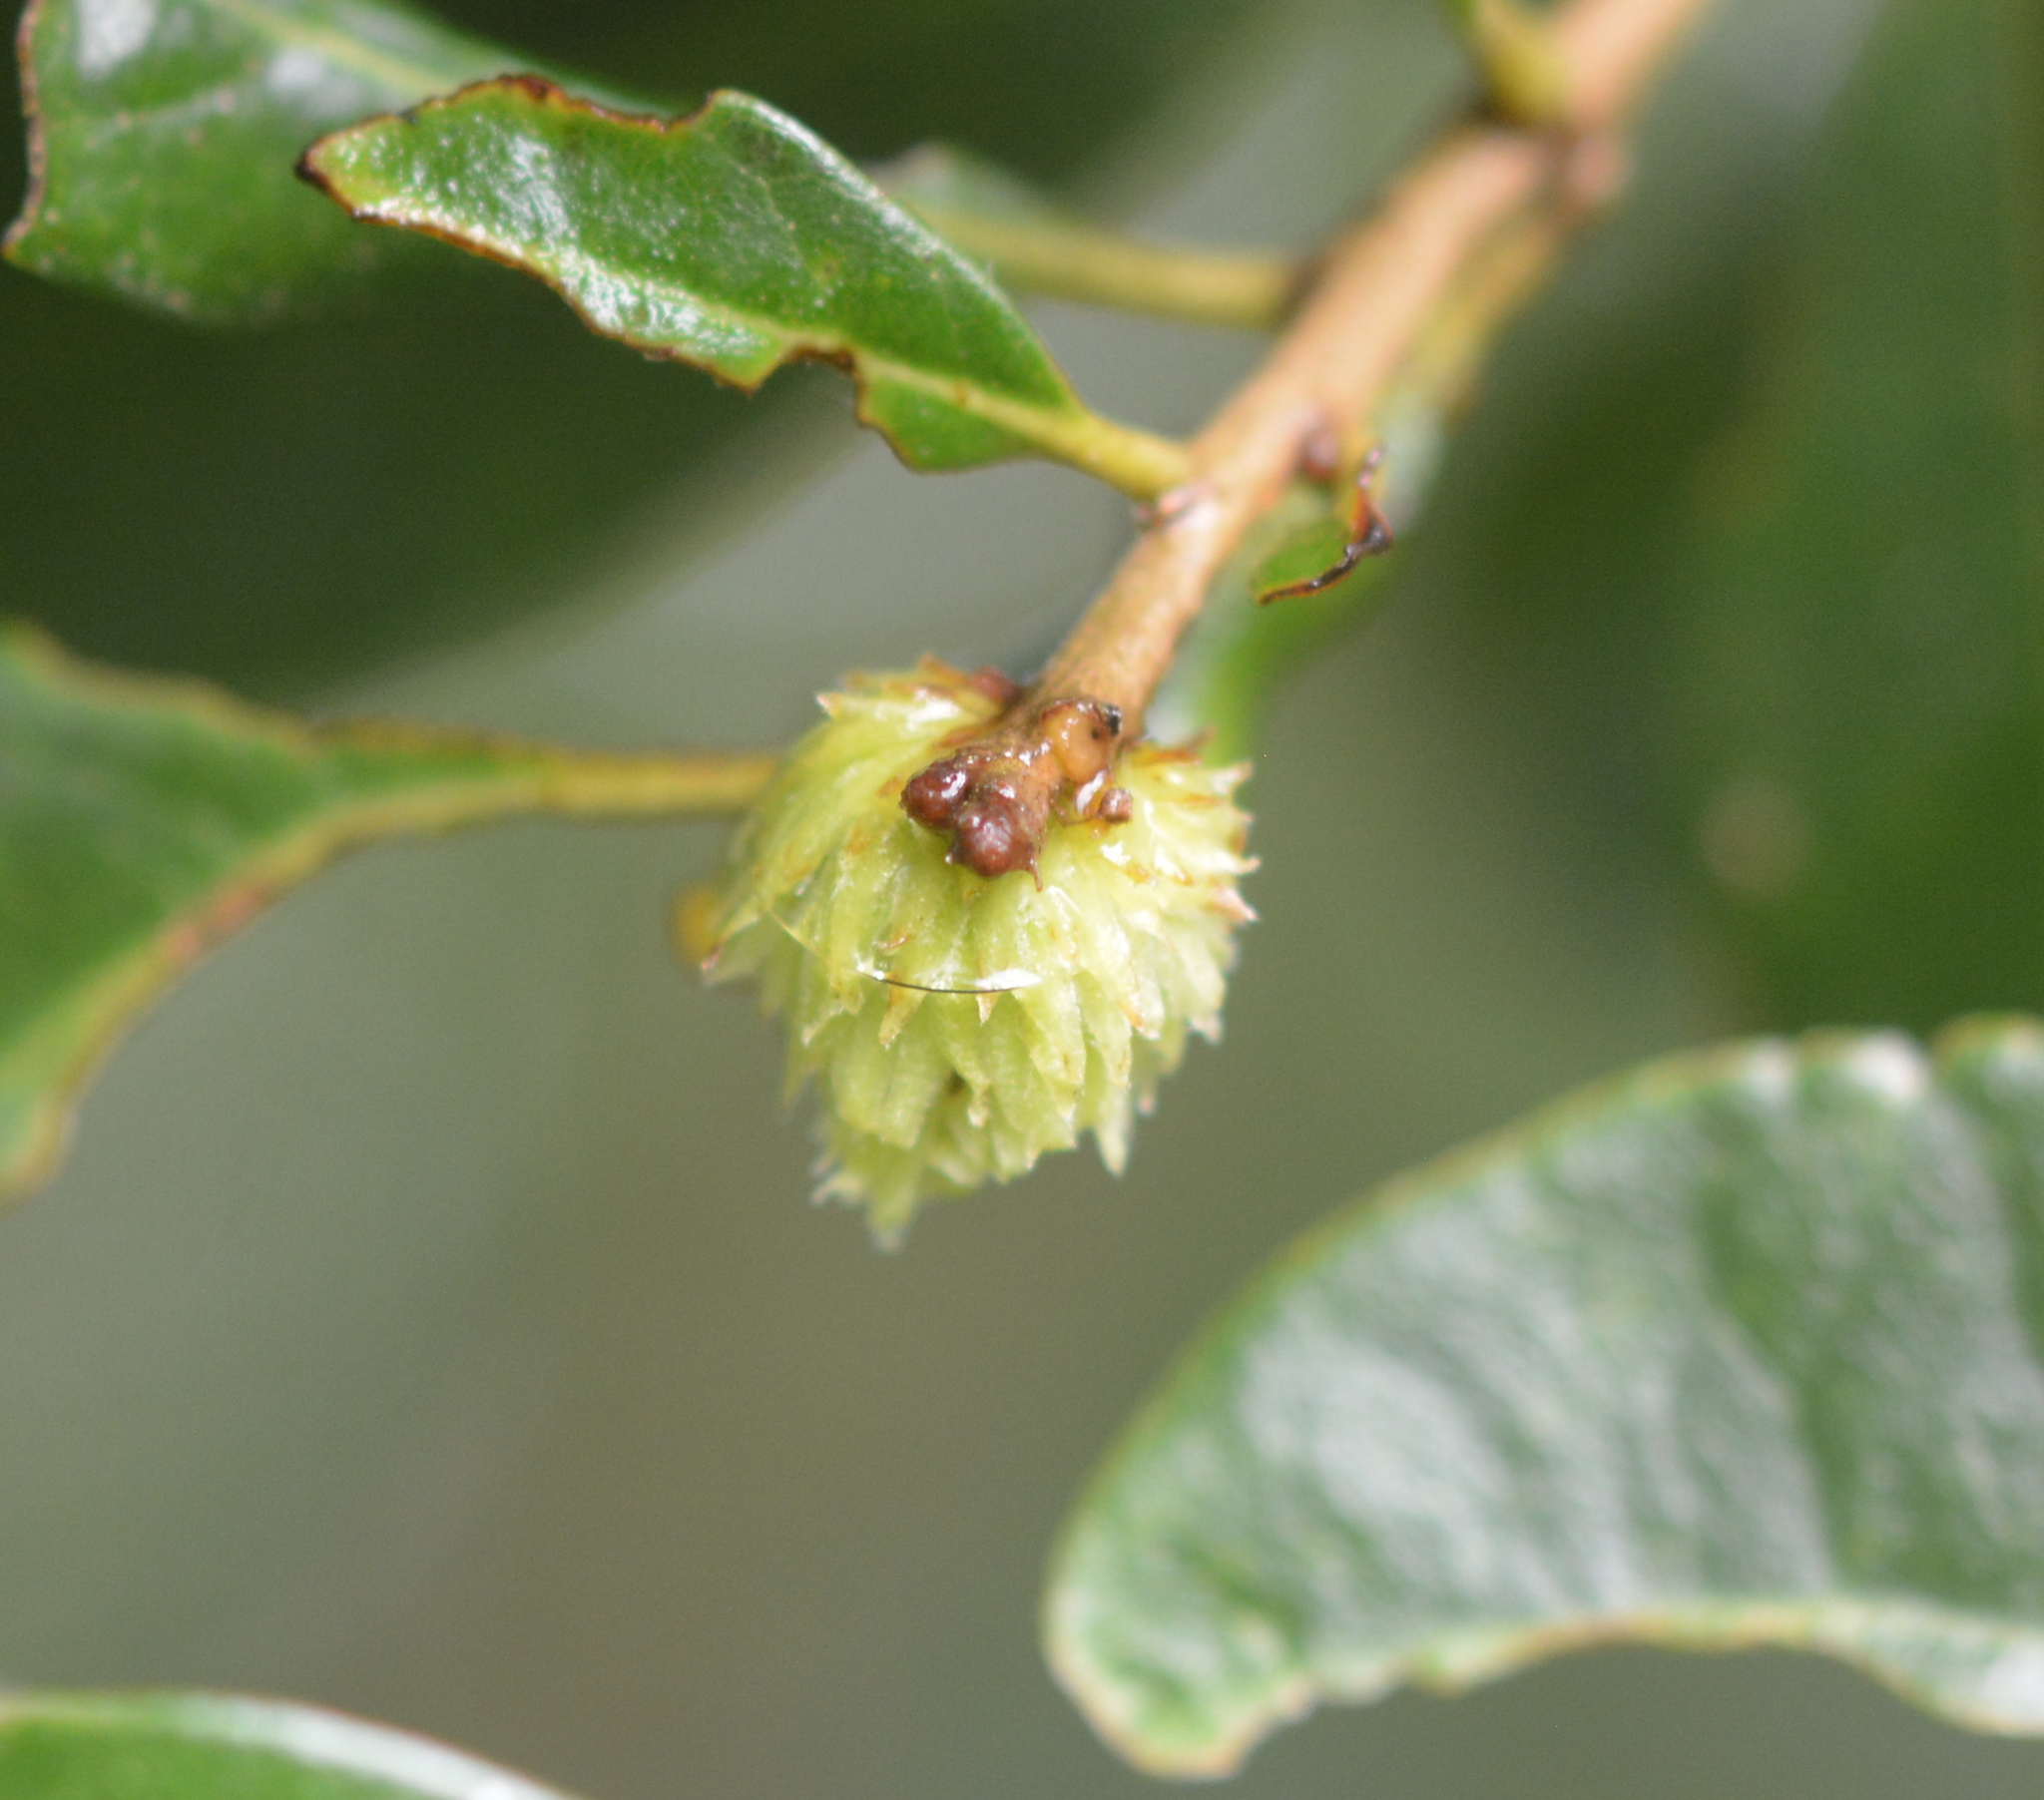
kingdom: Animalia
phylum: Arthropoda
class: Insecta
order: Hymenoptera
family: Cynipidae
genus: Andricus
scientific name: Andricus quercusfoliatus
